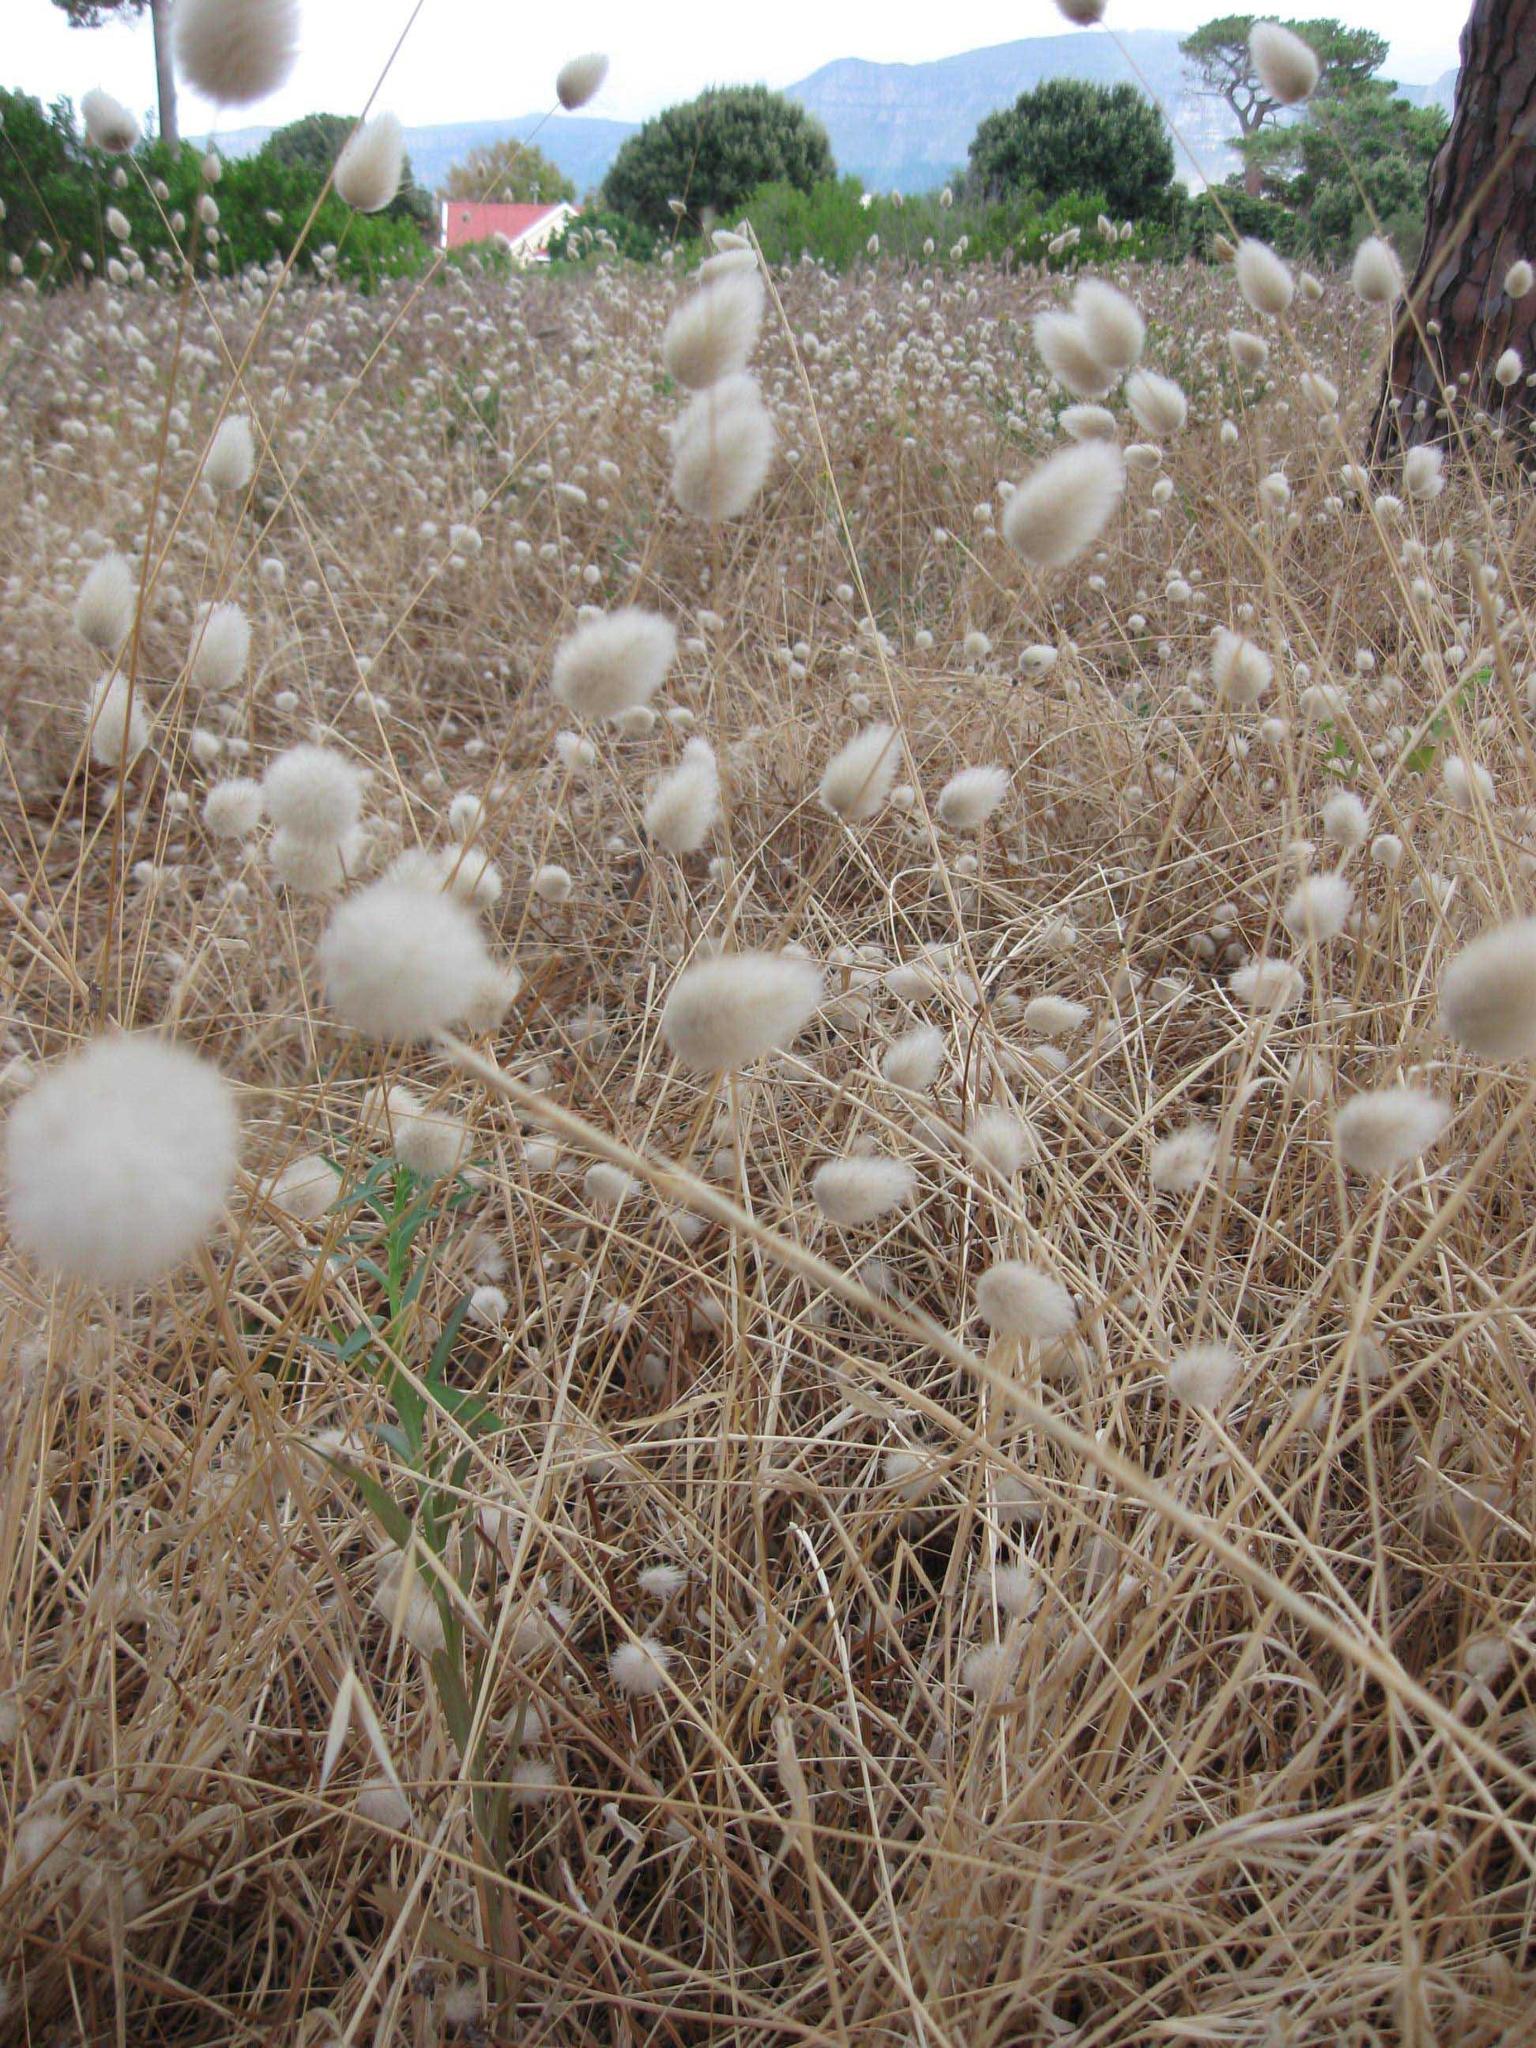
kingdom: Plantae
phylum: Tracheophyta
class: Liliopsida
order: Poales
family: Poaceae
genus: Lagurus
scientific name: Lagurus ovatus
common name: Hare's-tail
